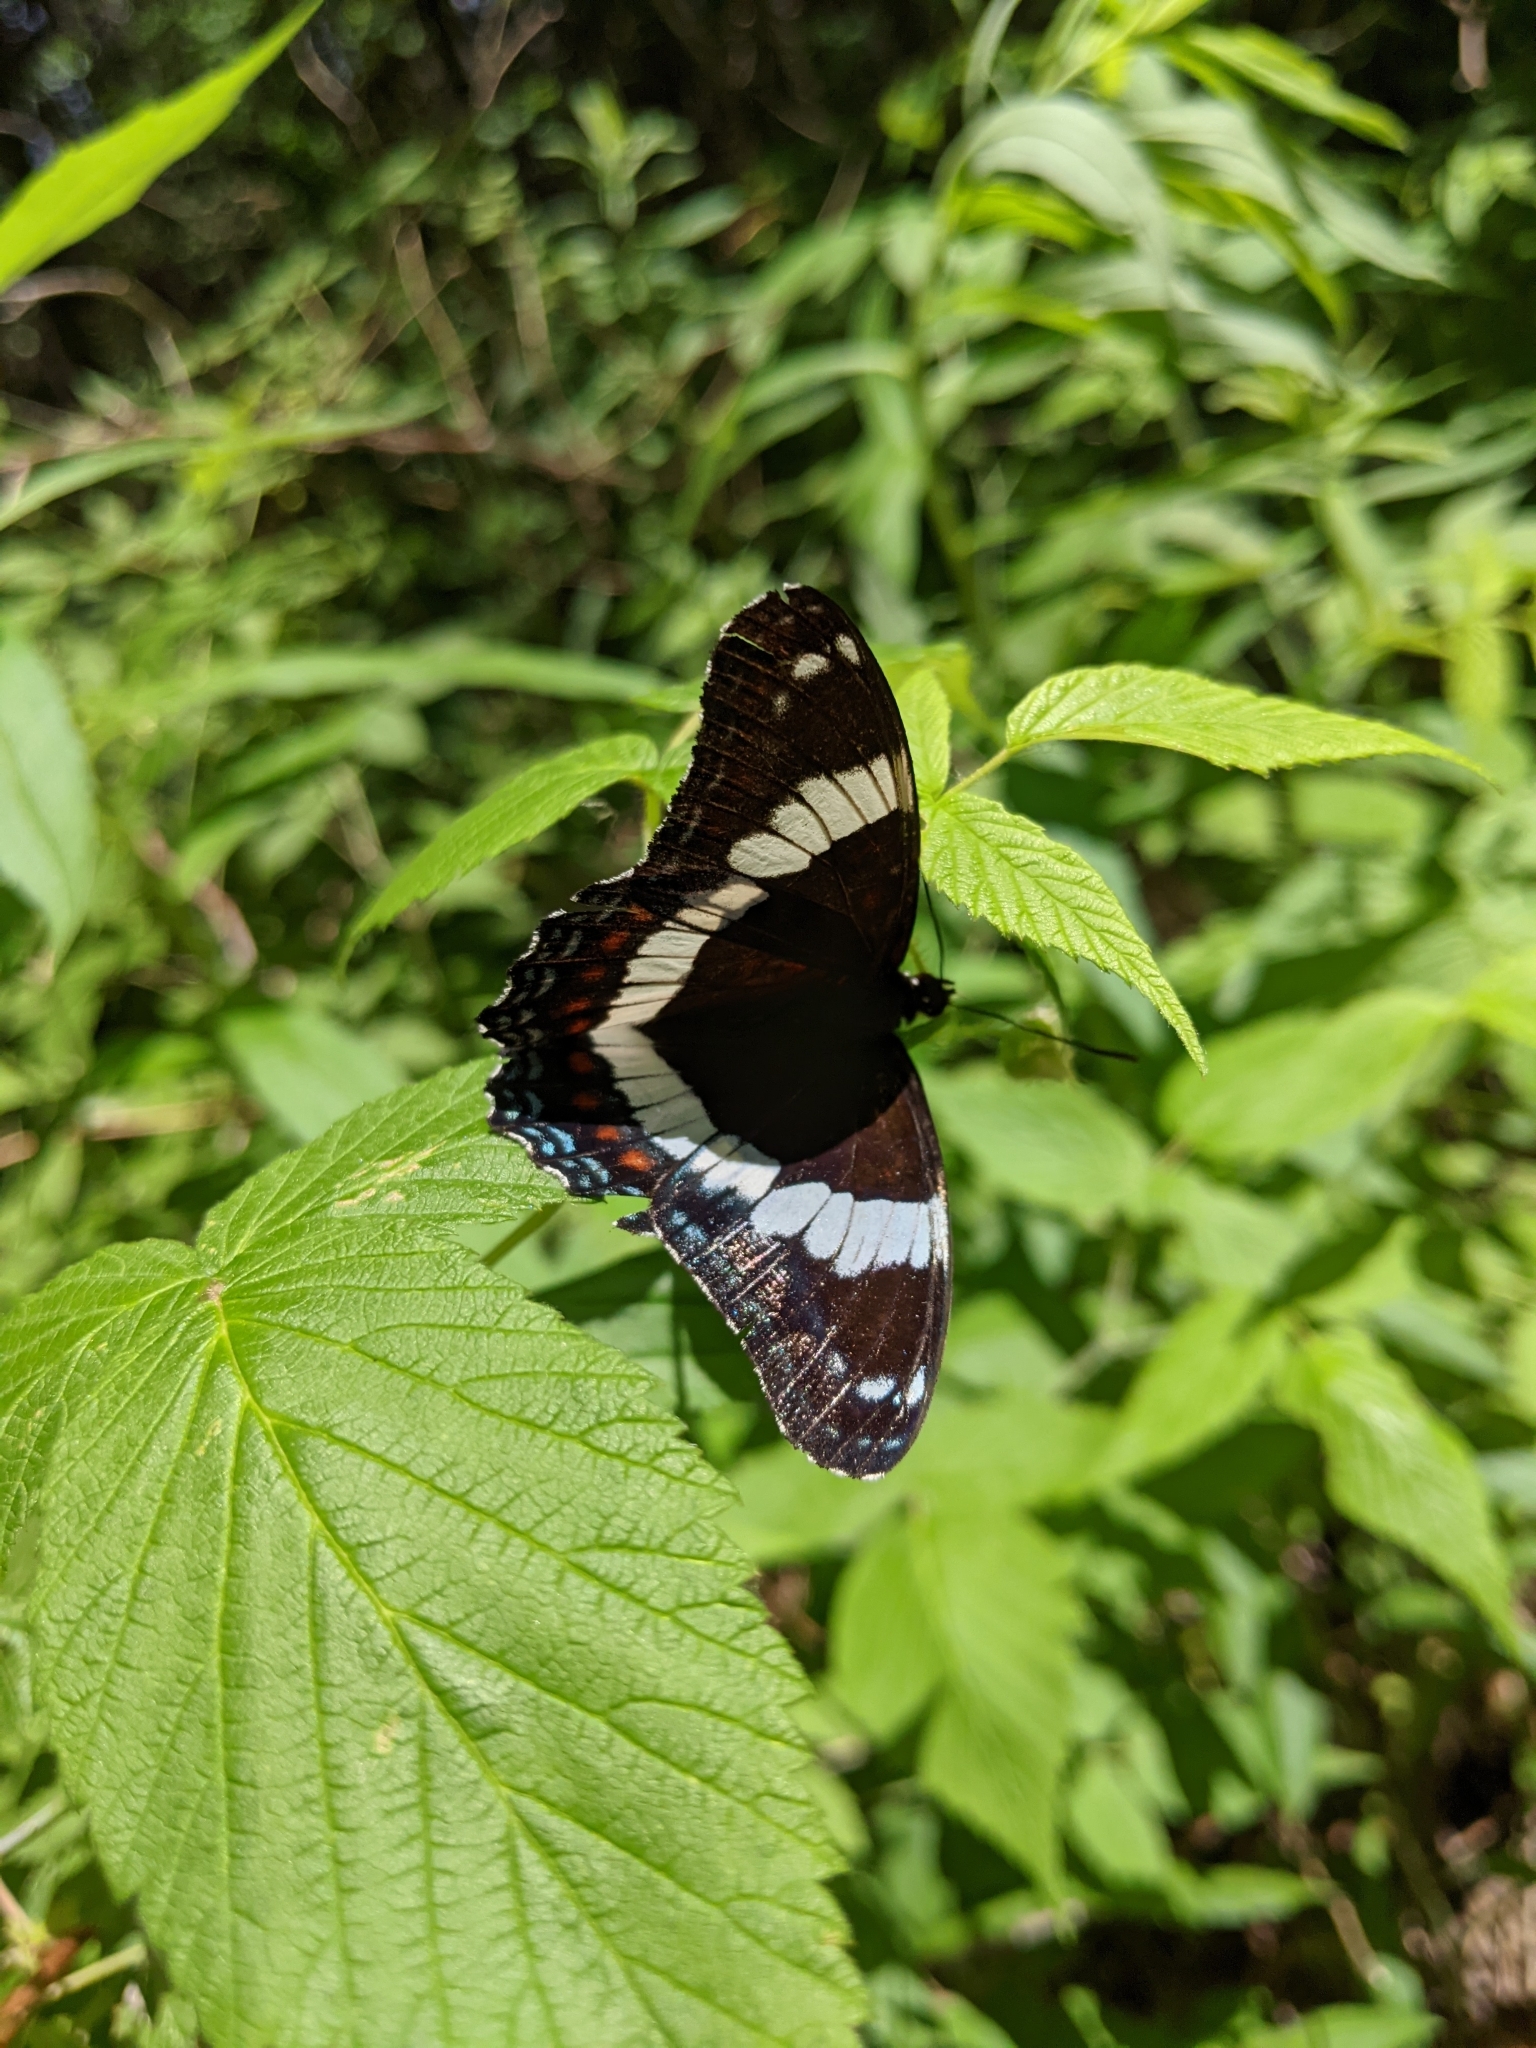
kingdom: Animalia
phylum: Arthropoda
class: Insecta
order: Lepidoptera
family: Nymphalidae
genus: Limenitis
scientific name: Limenitis arthemis
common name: Red-spotted admiral
